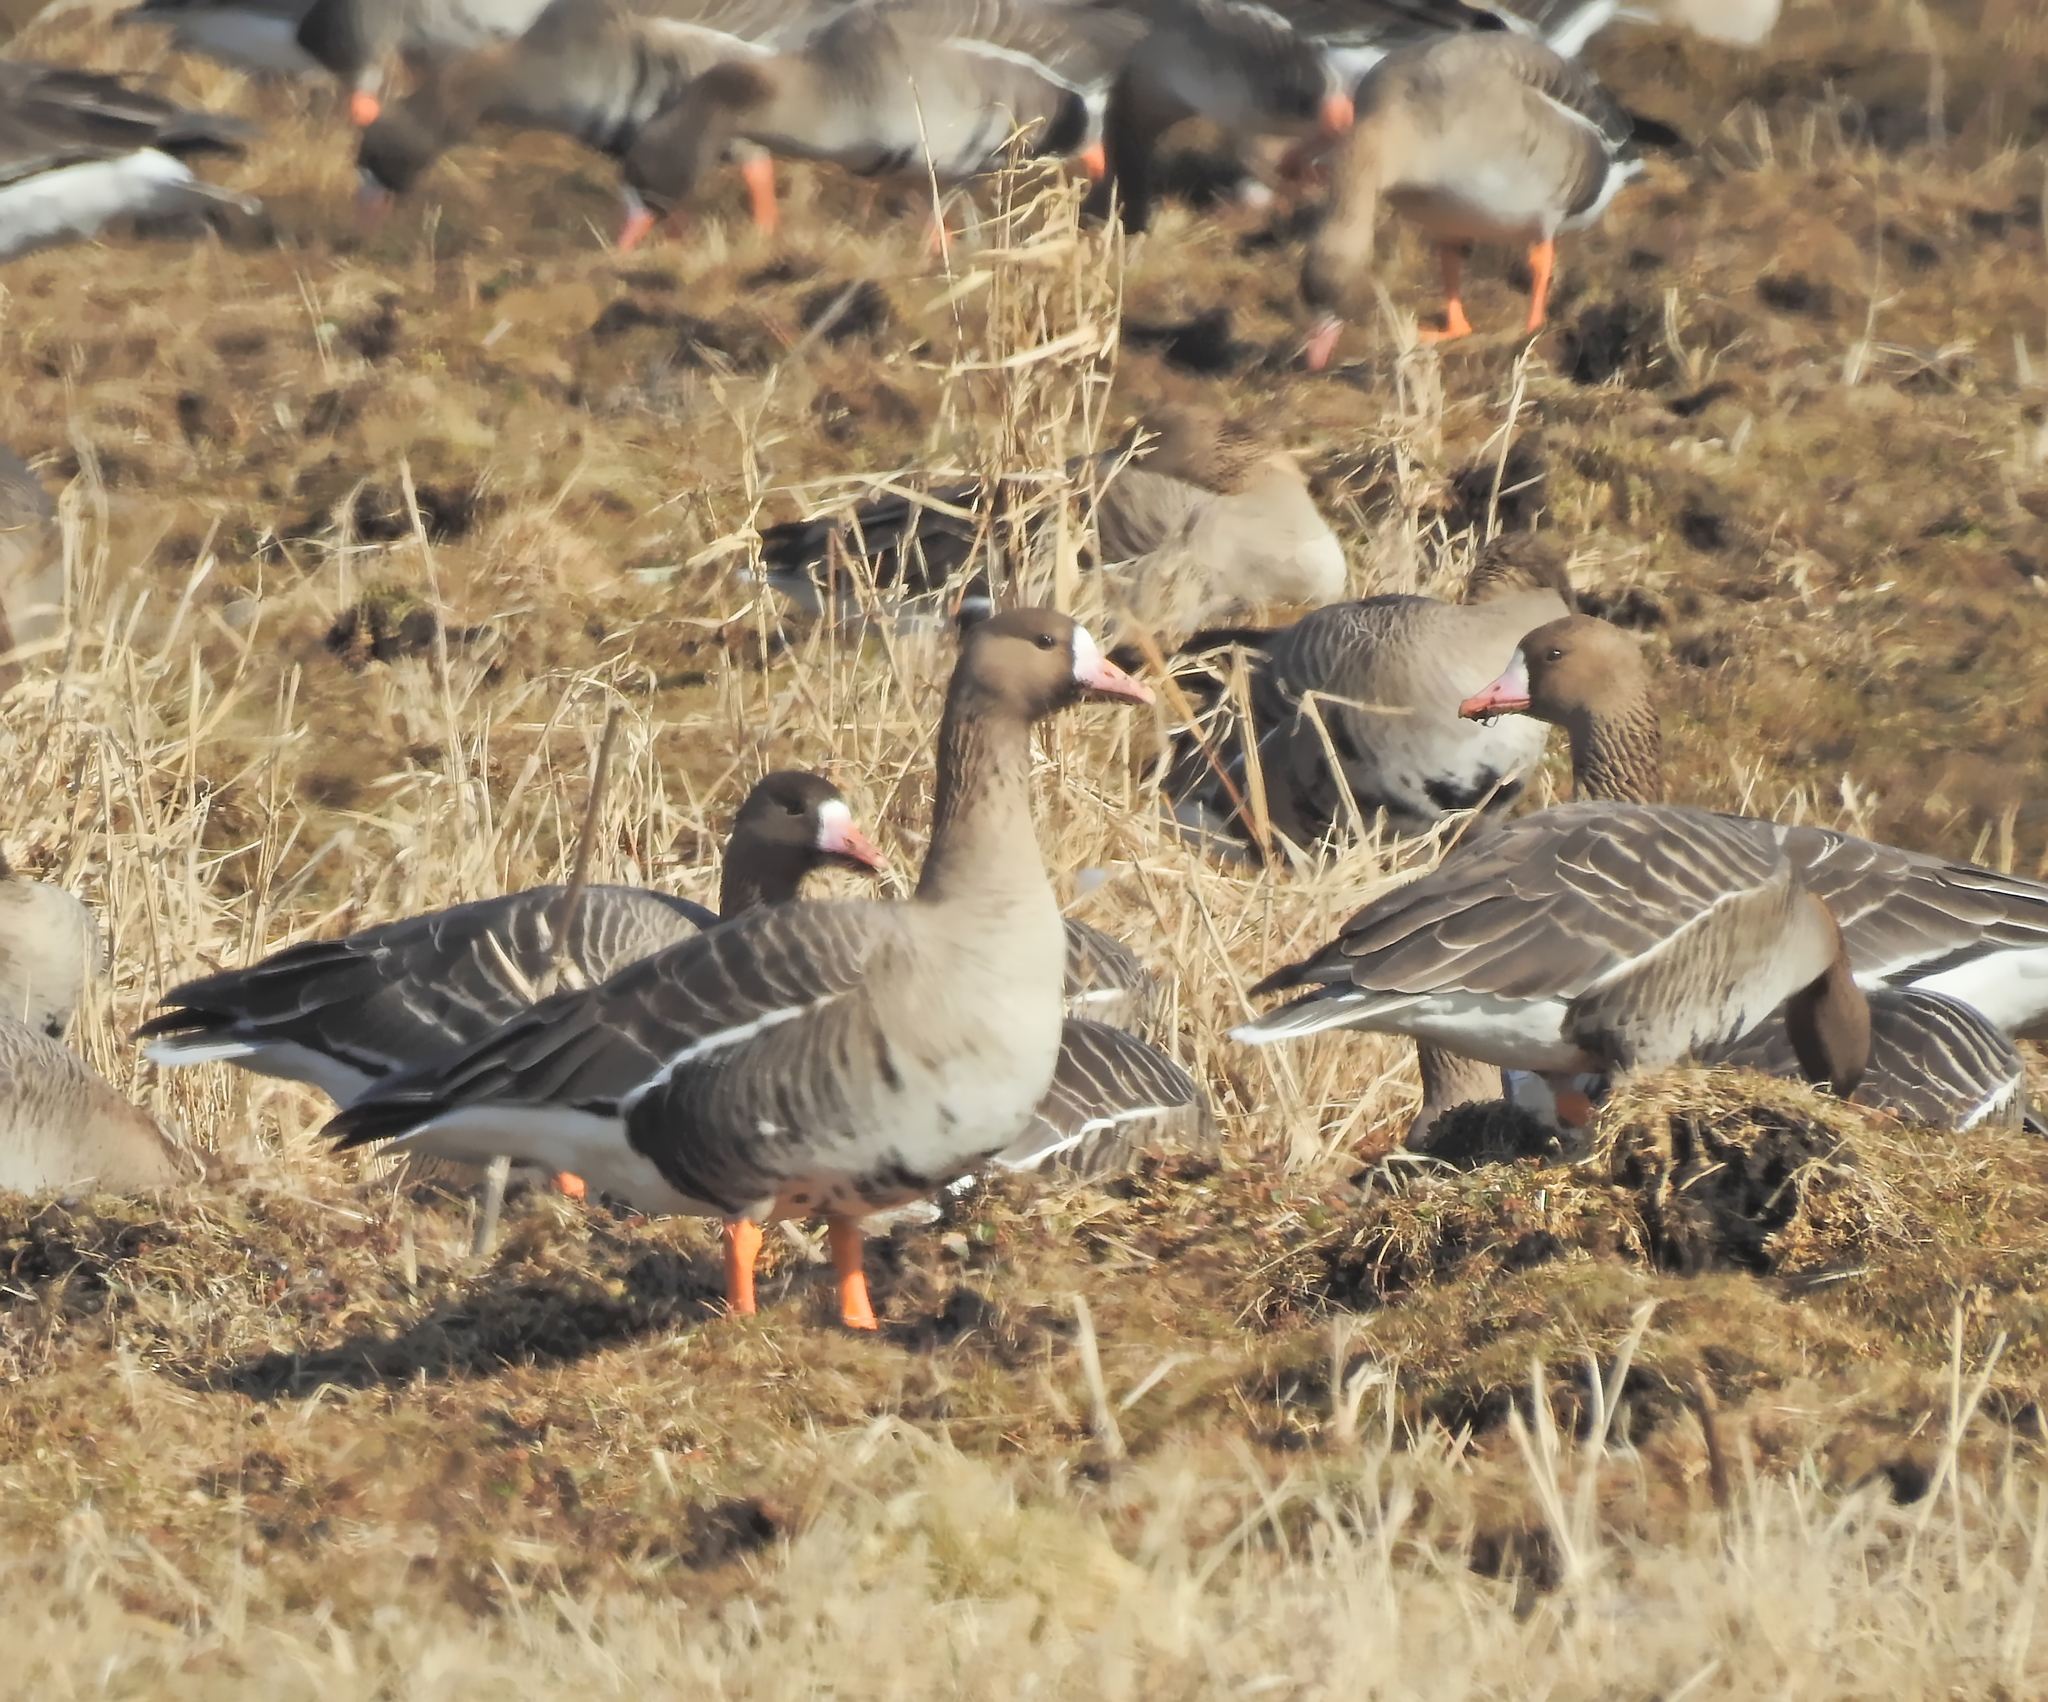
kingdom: Animalia
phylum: Chordata
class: Aves
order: Anseriformes
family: Anatidae
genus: Anser
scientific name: Anser albifrons
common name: Greater white-fronted goose
